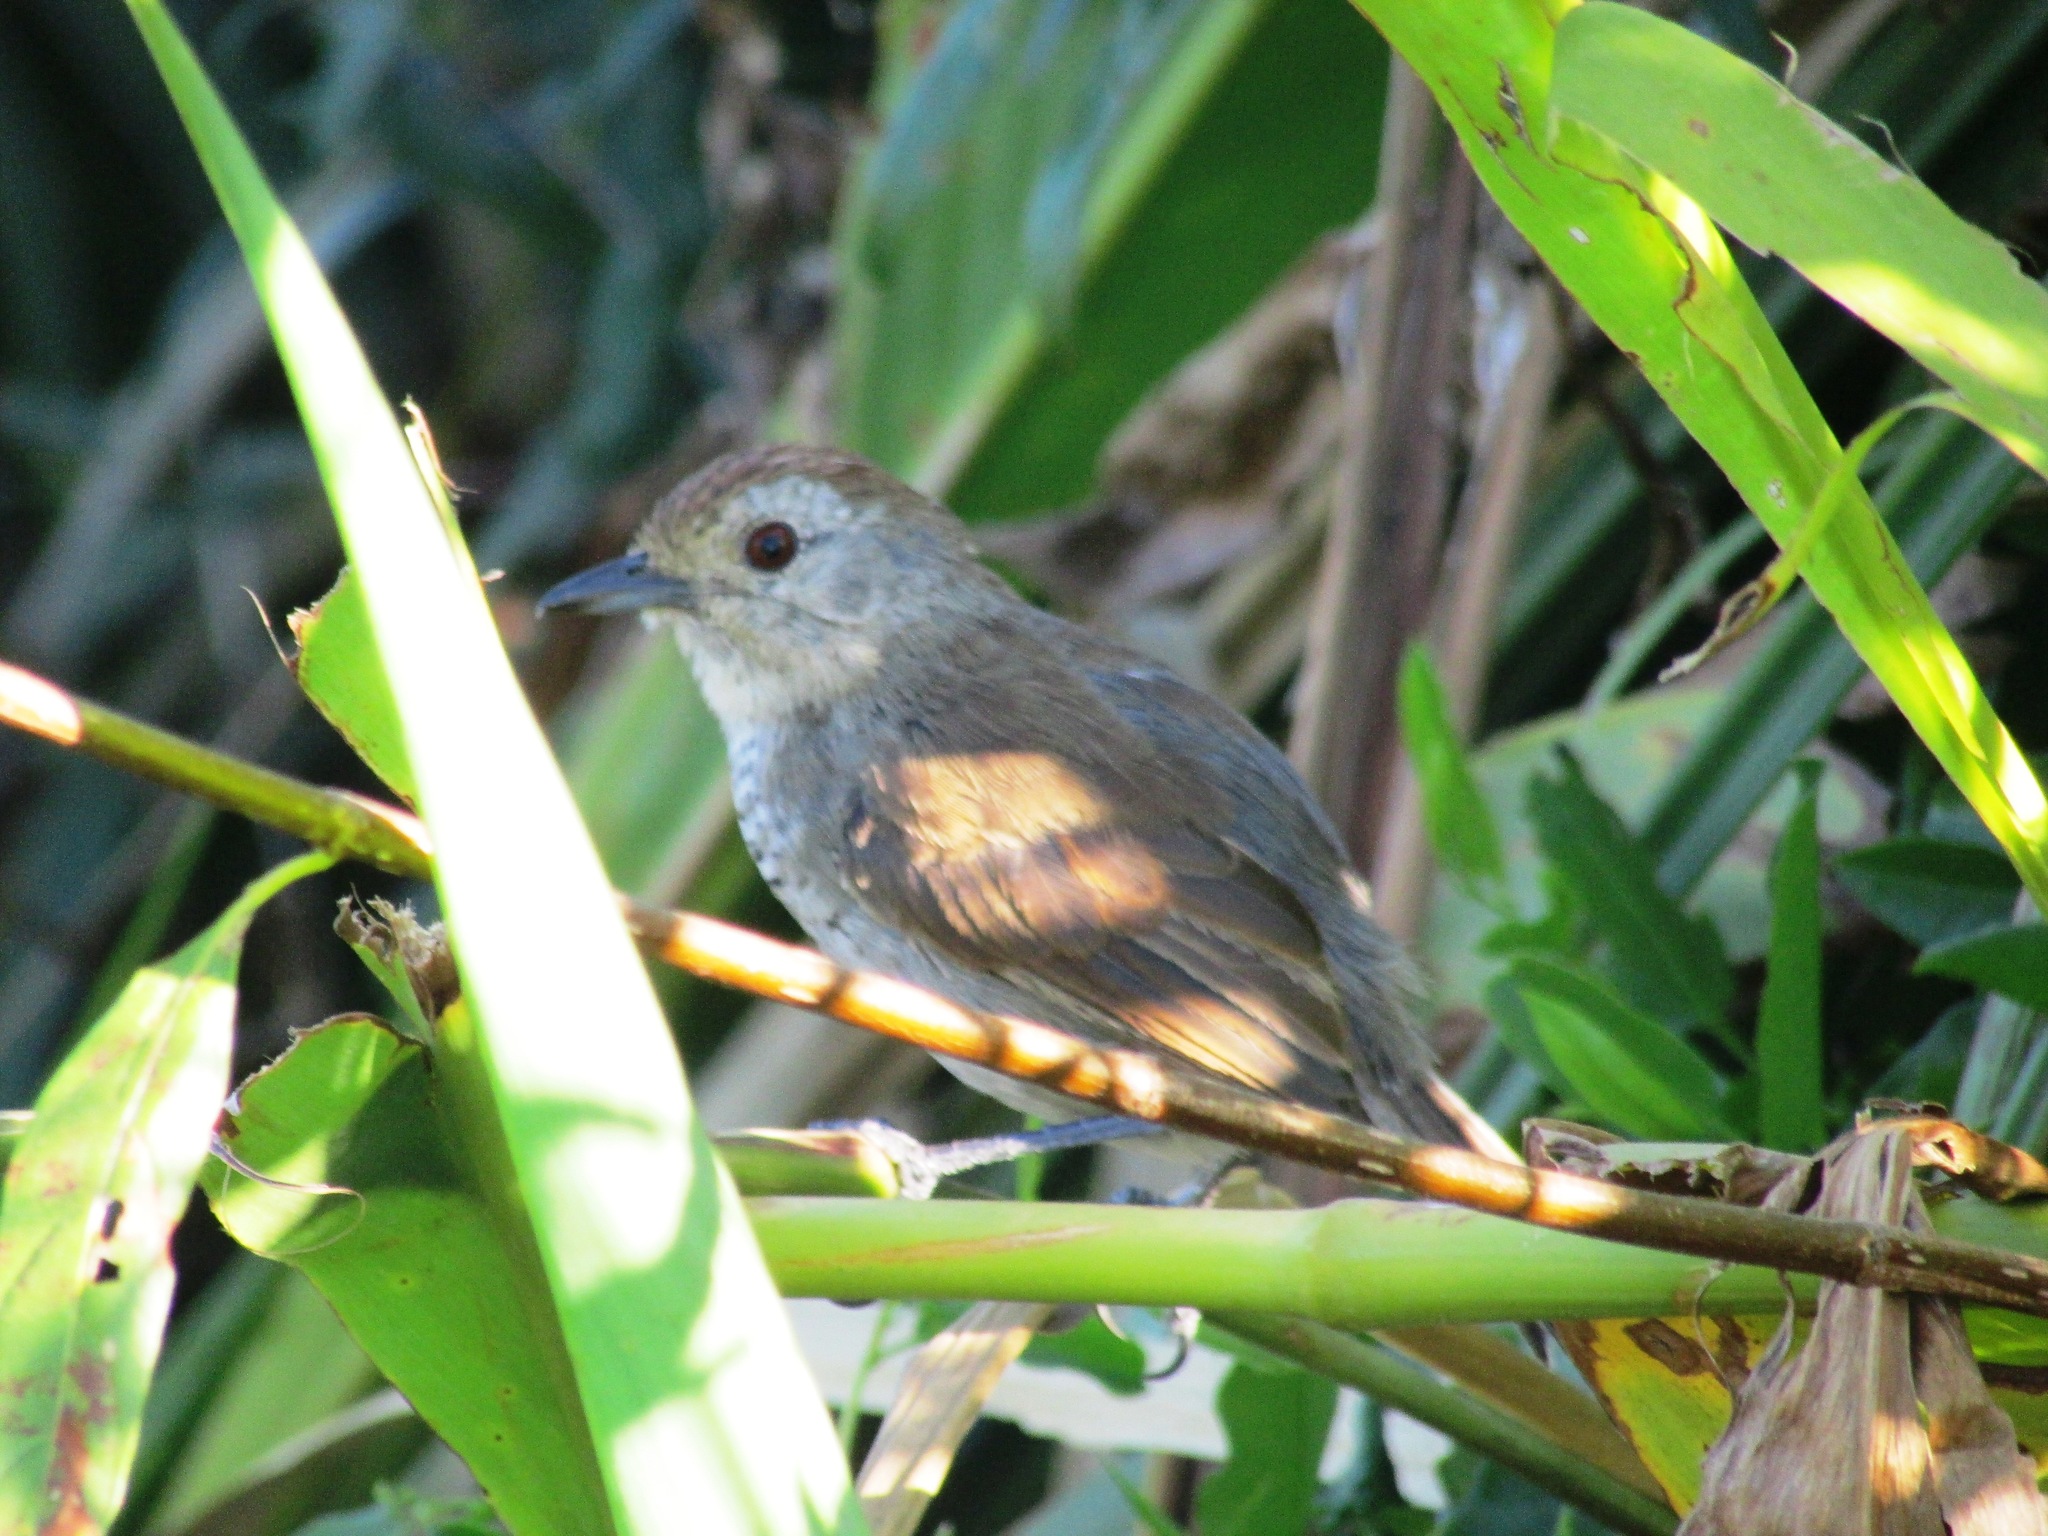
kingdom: Animalia
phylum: Chordata
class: Aves
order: Passeriformes
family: Thamnophilidae
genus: Thamnophilus
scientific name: Thamnophilus ruficapillus
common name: Rufous-capped antshrike
